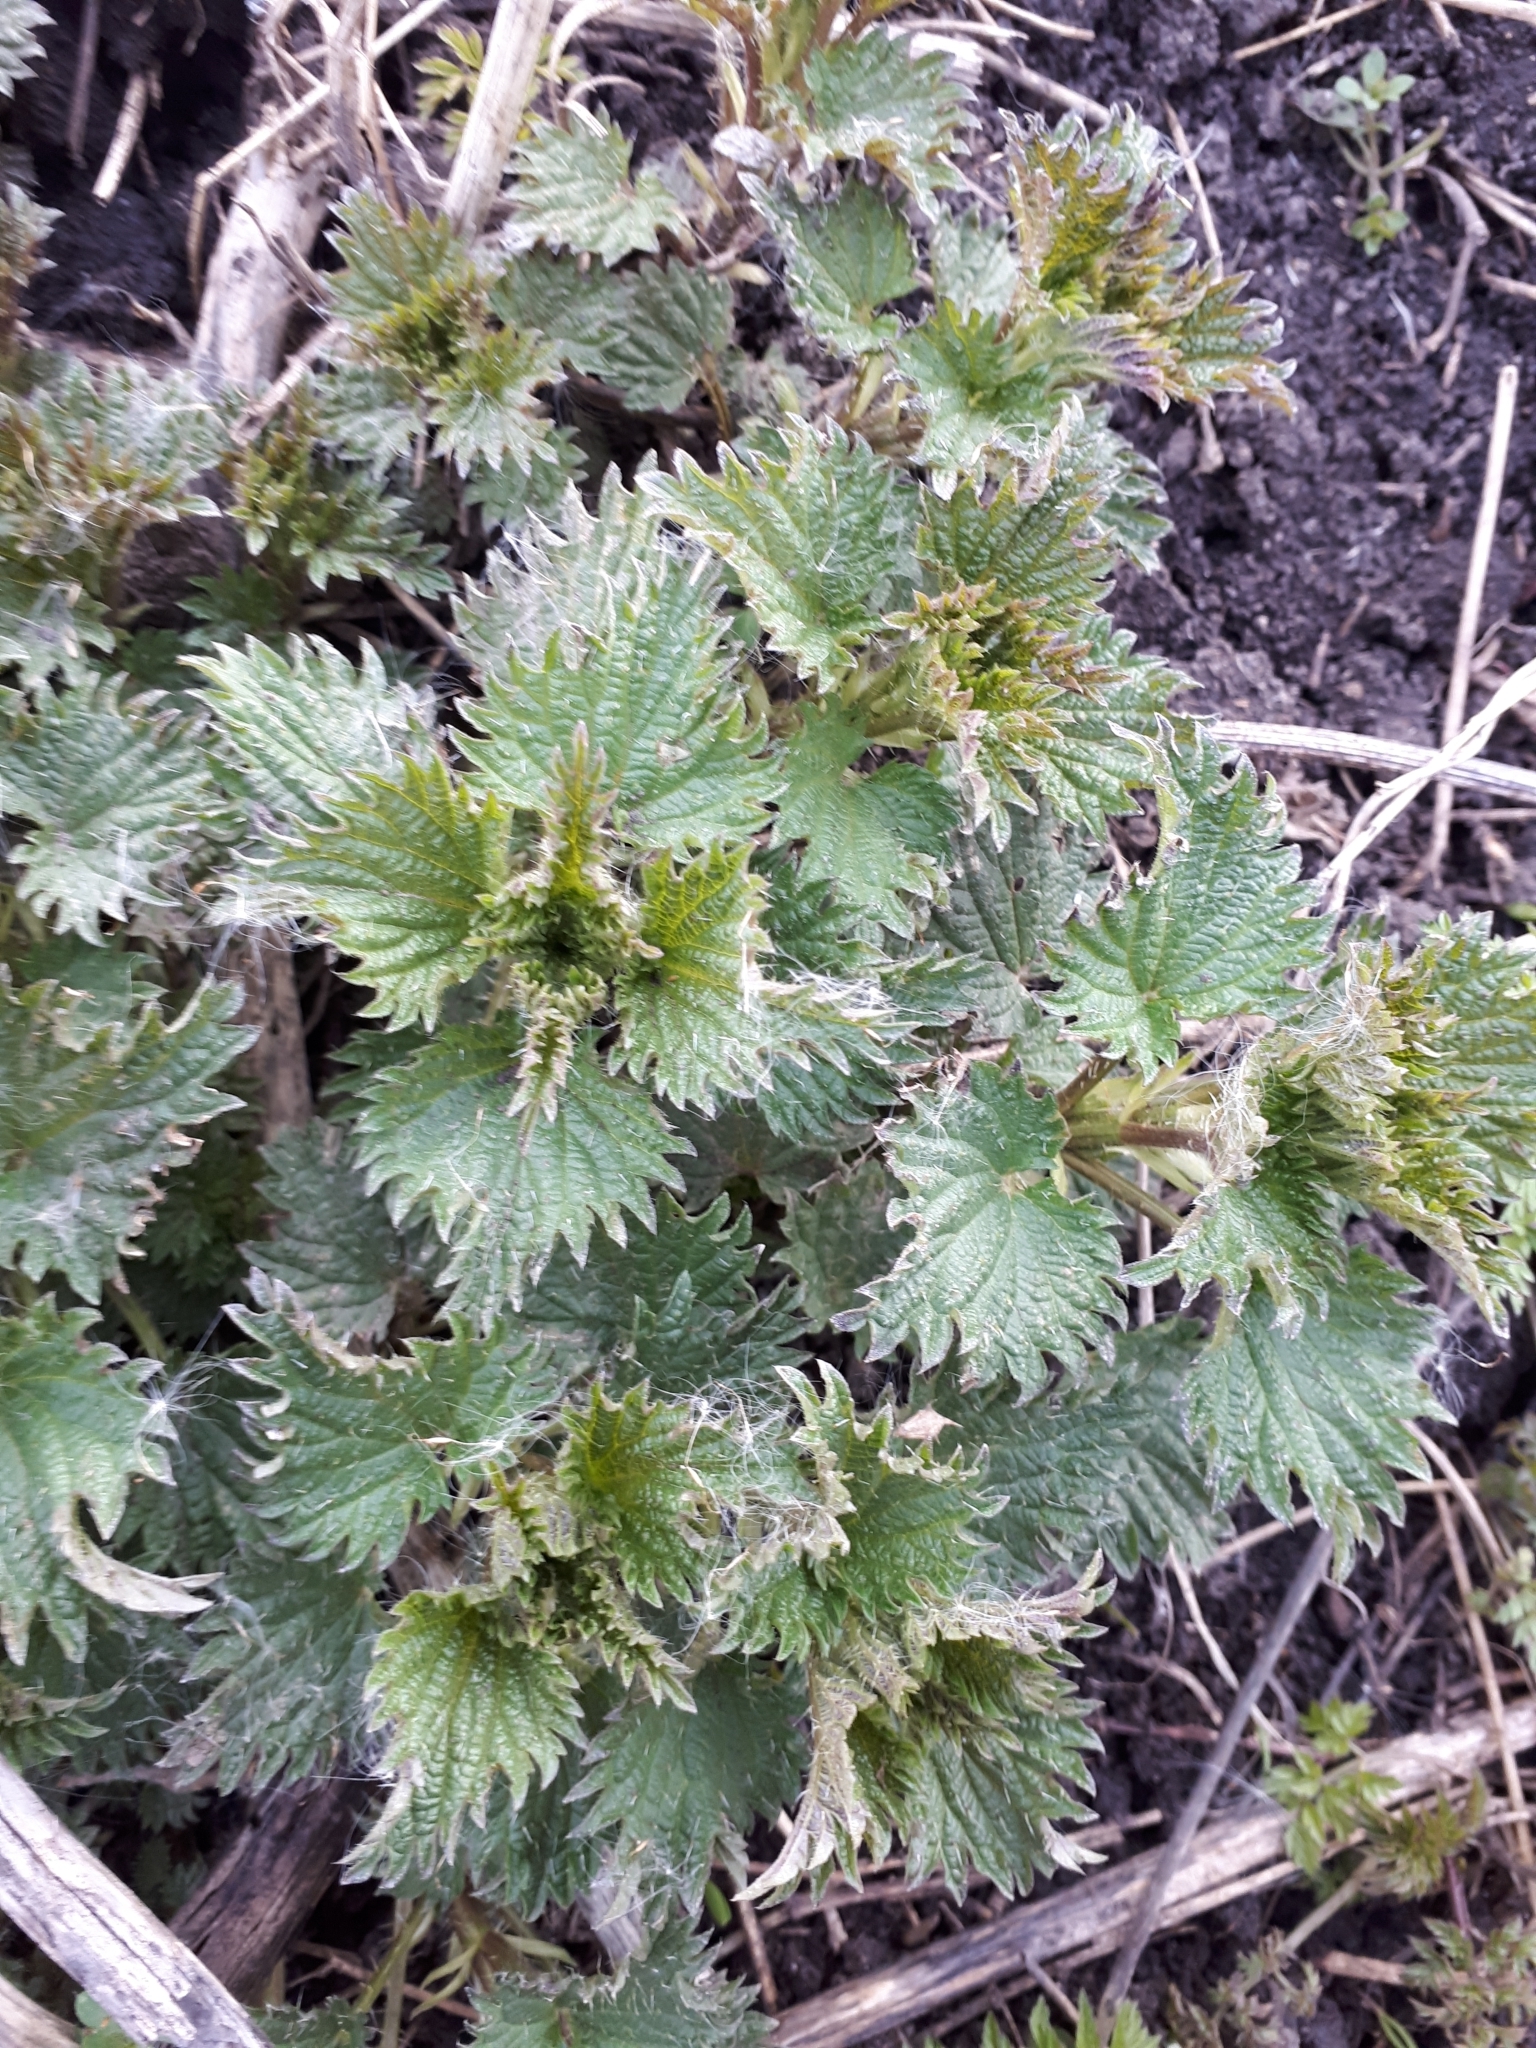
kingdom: Plantae
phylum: Tracheophyta
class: Magnoliopsida
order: Rosales
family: Urticaceae
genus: Urtica
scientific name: Urtica dioica
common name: Common nettle
